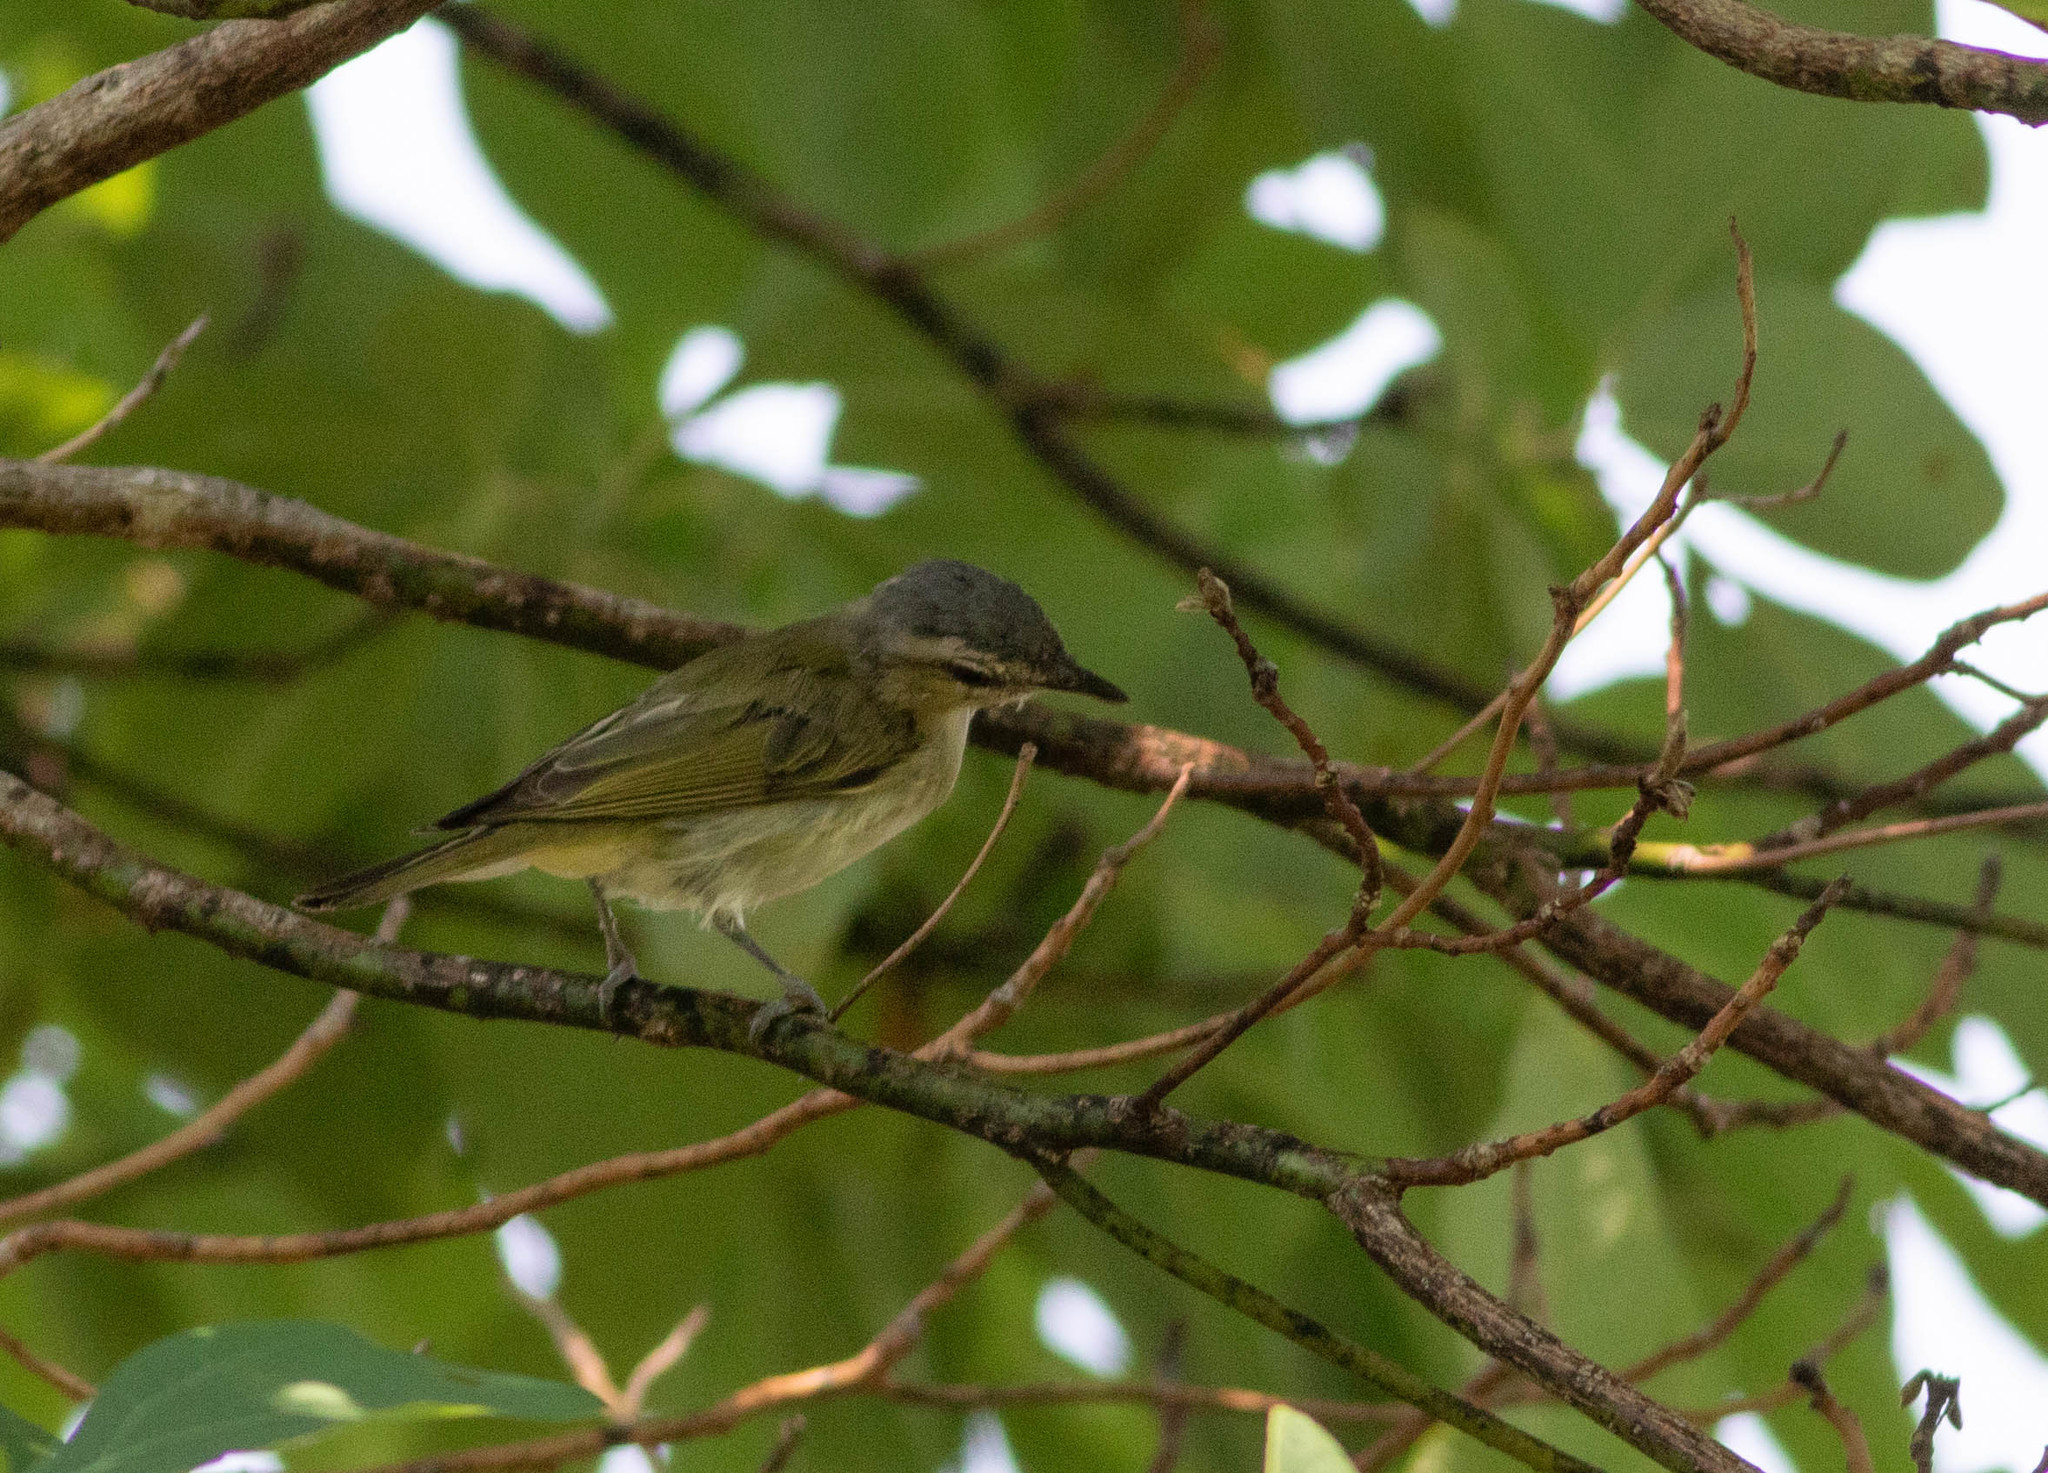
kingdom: Animalia
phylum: Chordata
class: Aves
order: Passeriformes
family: Vireonidae
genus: Vireo
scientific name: Vireo olivaceus
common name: Red-eyed vireo
